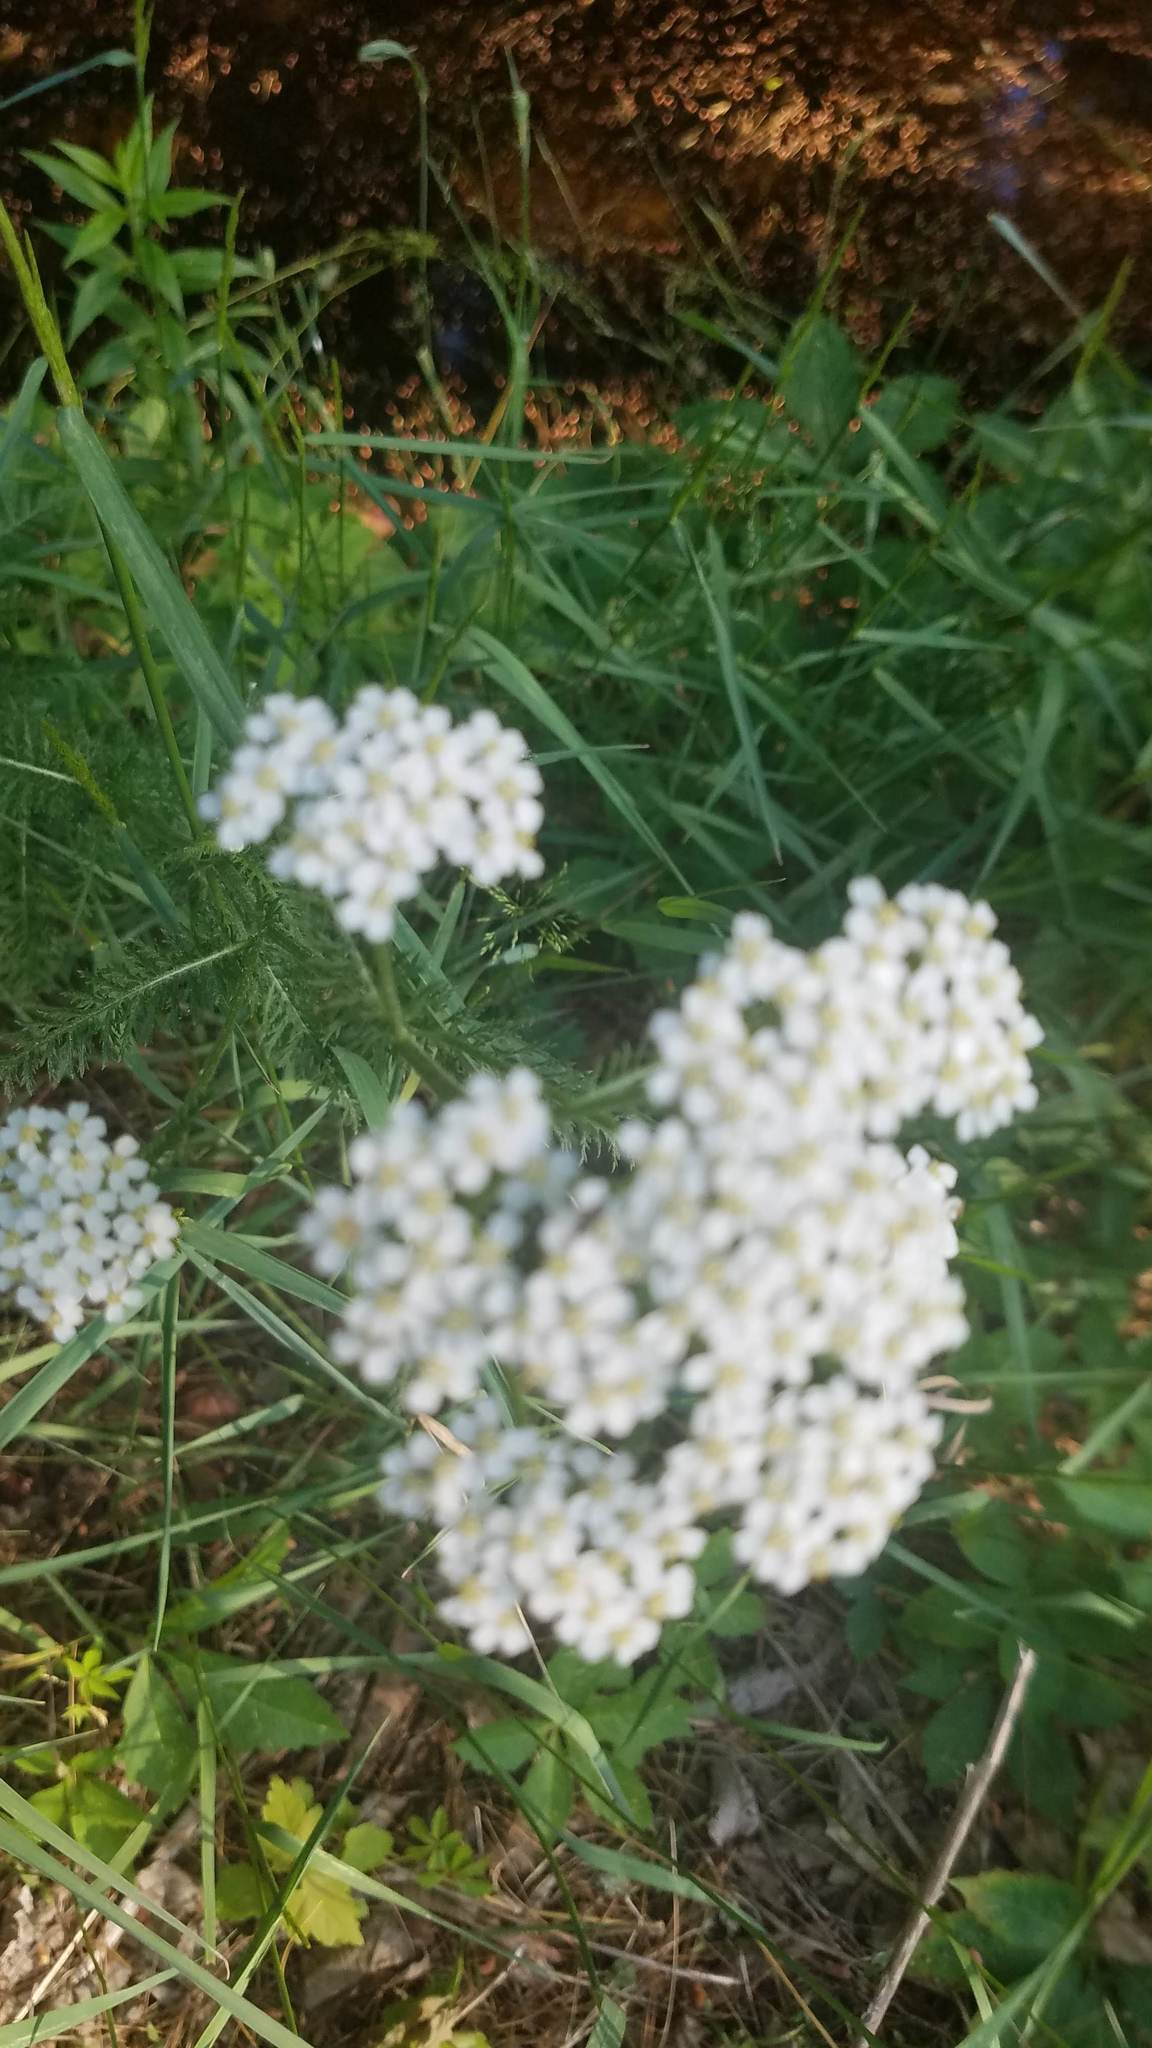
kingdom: Plantae
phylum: Tracheophyta
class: Magnoliopsida
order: Asterales
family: Asteraceae
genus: Achillea
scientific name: Achillea millefolium
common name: Yarrow
